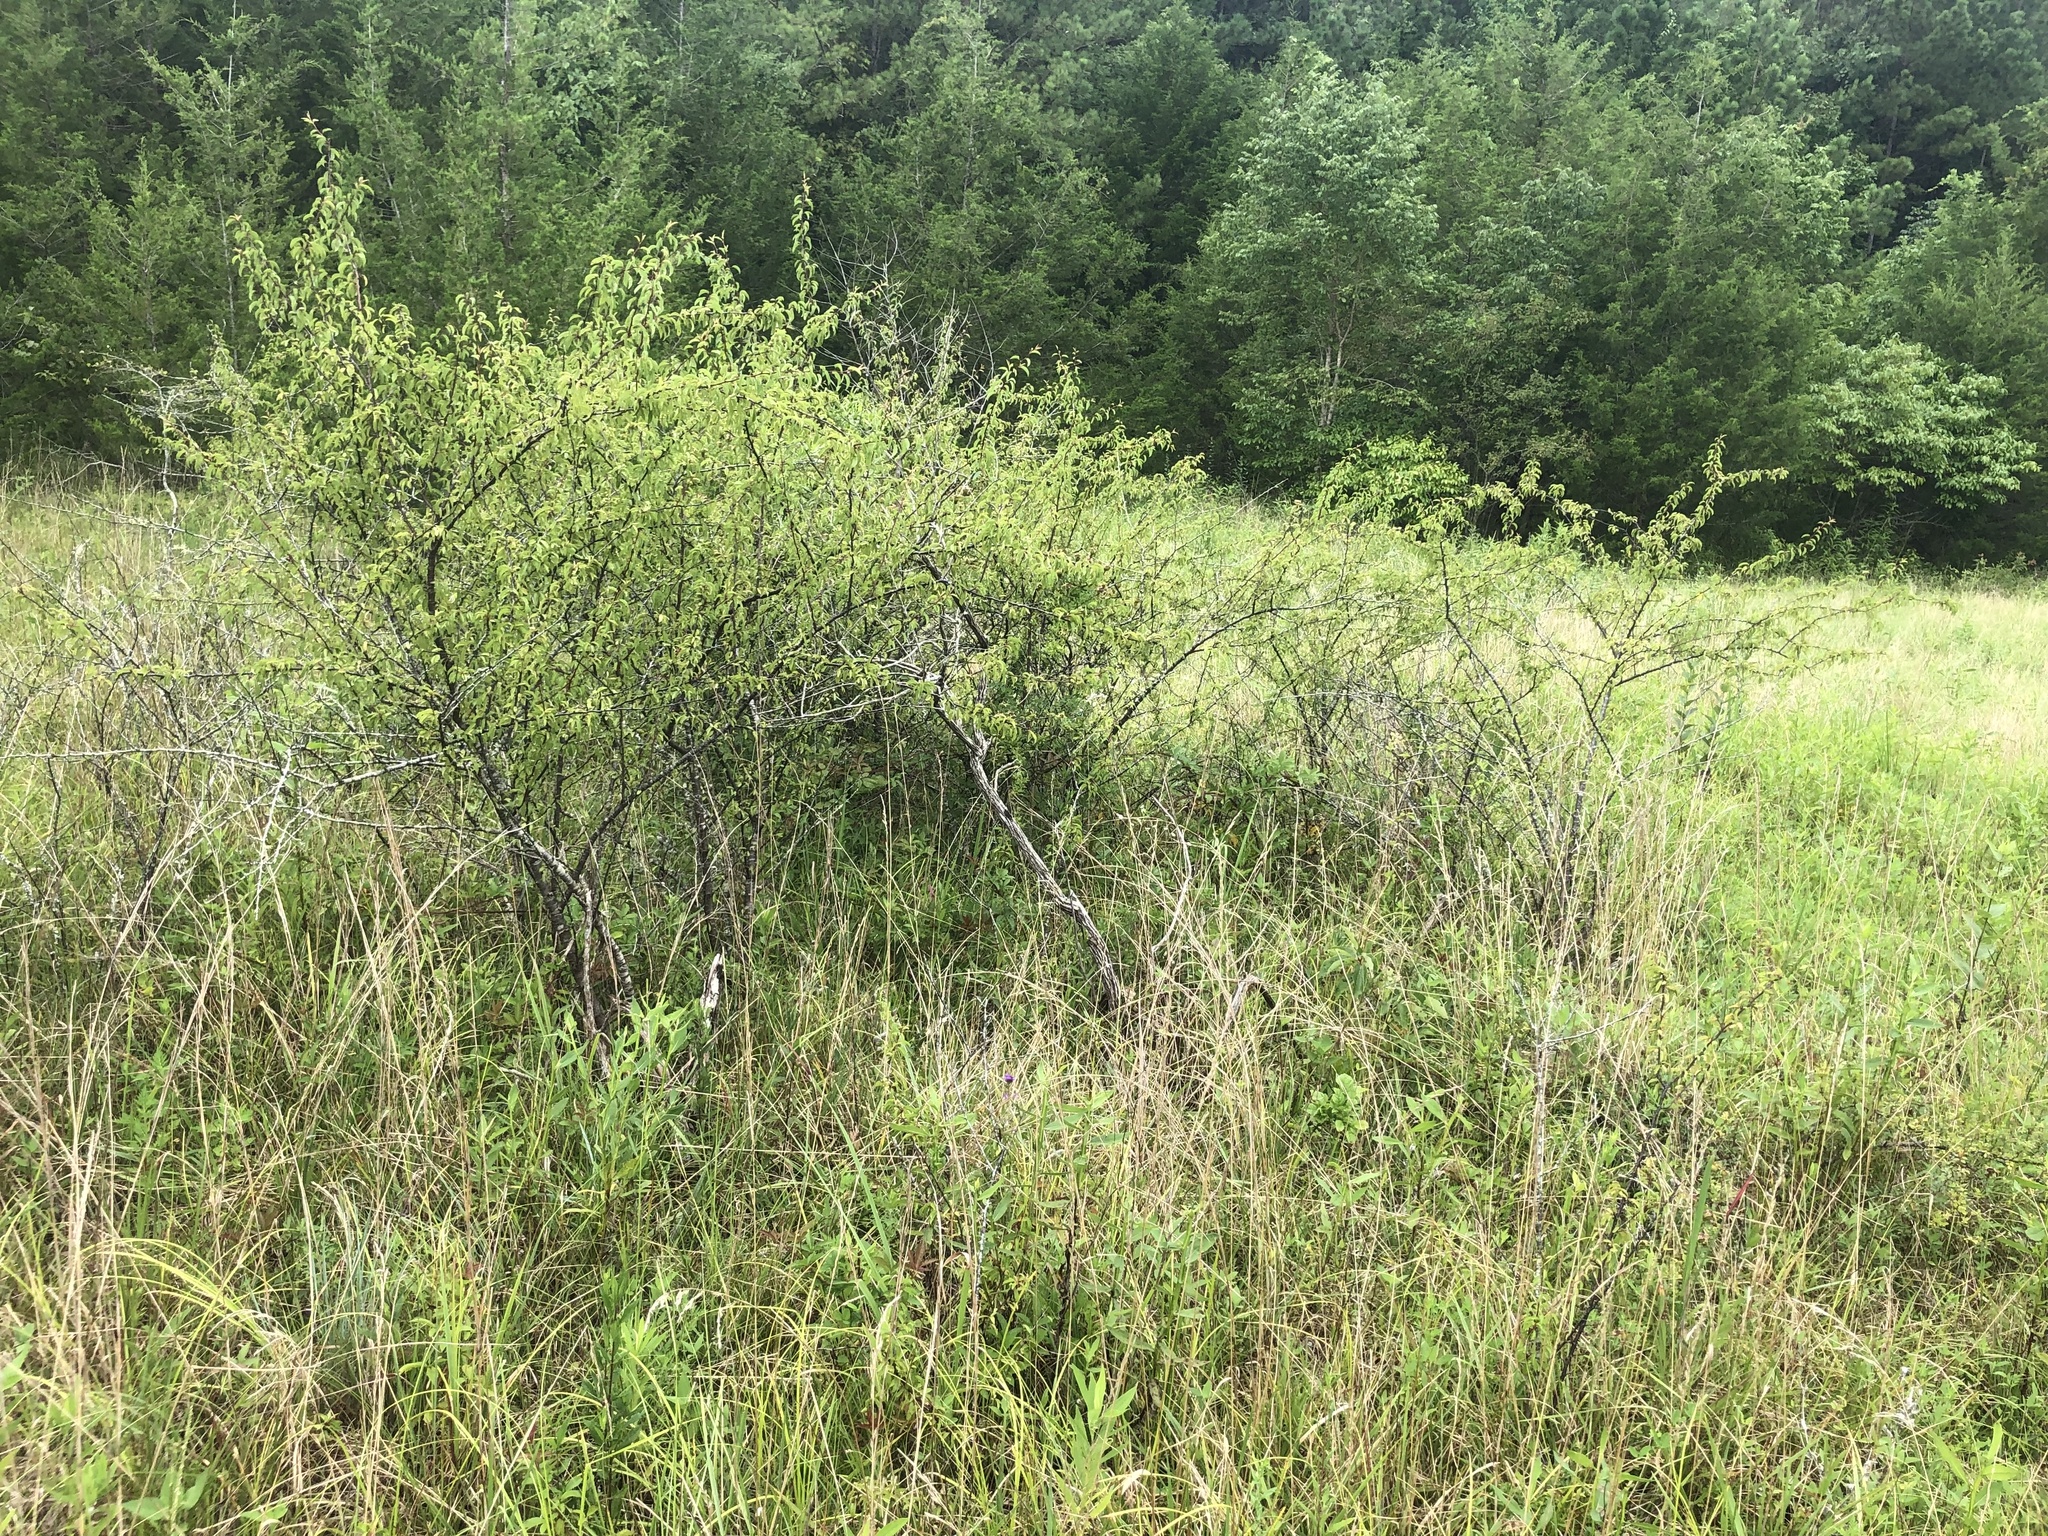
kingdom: Plantae
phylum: Tracheophyta
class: Magnoliopsida
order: Rosales
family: Rosaceae
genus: Prunus
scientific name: Prunus angustifolia
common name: Cherokee plum
